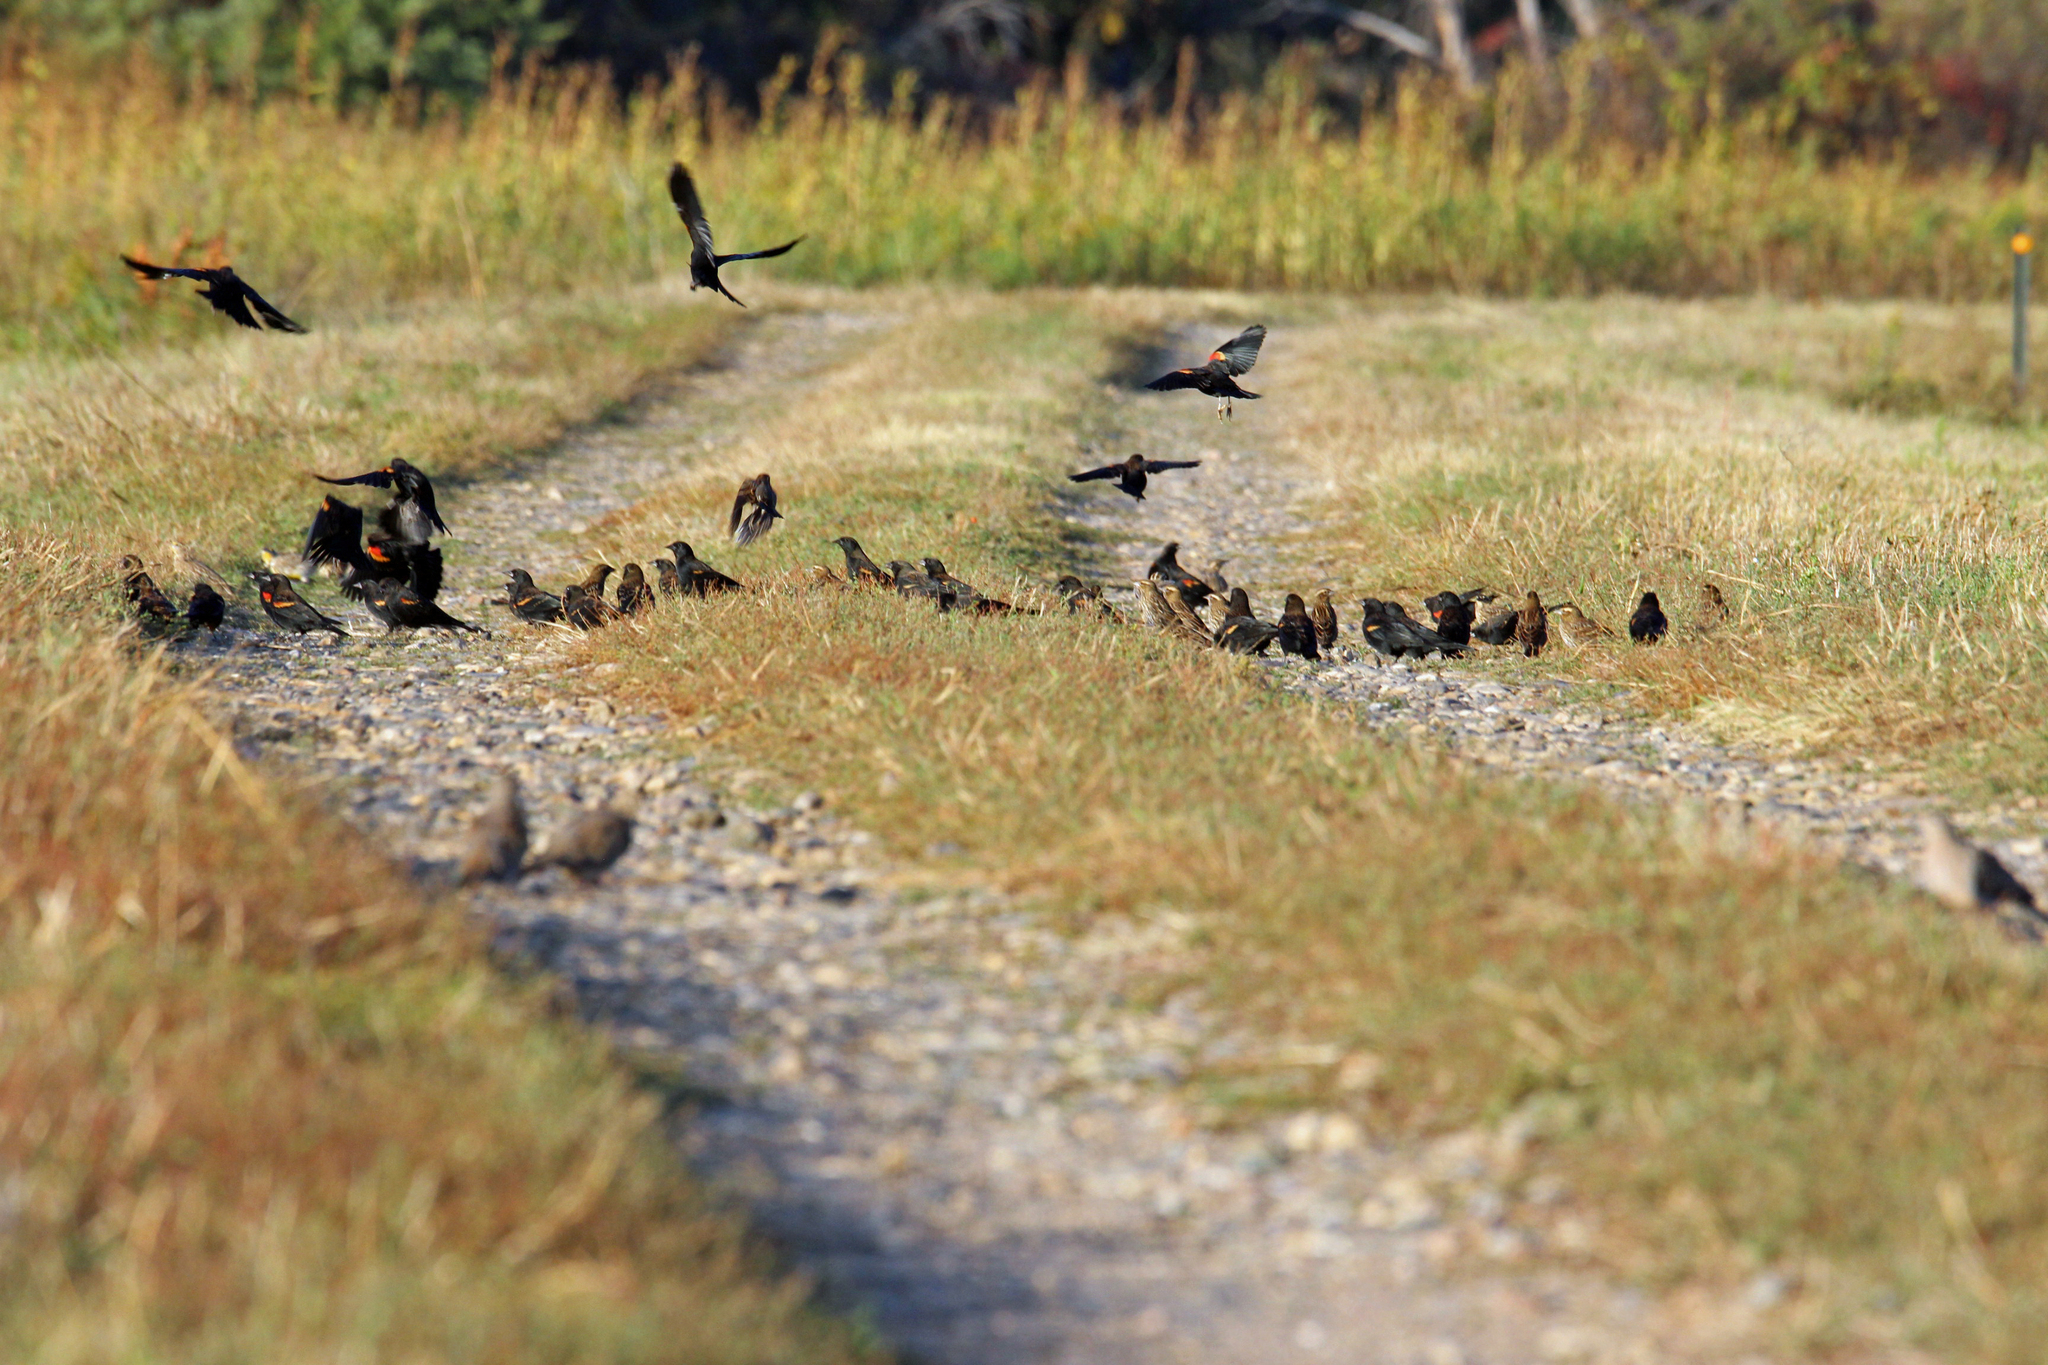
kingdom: Animalia
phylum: Chordata
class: Aves
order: Passeriformes
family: Icteridae
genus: Agelaius
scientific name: Agelaius phoeniceus
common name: Red-winged blackbird
